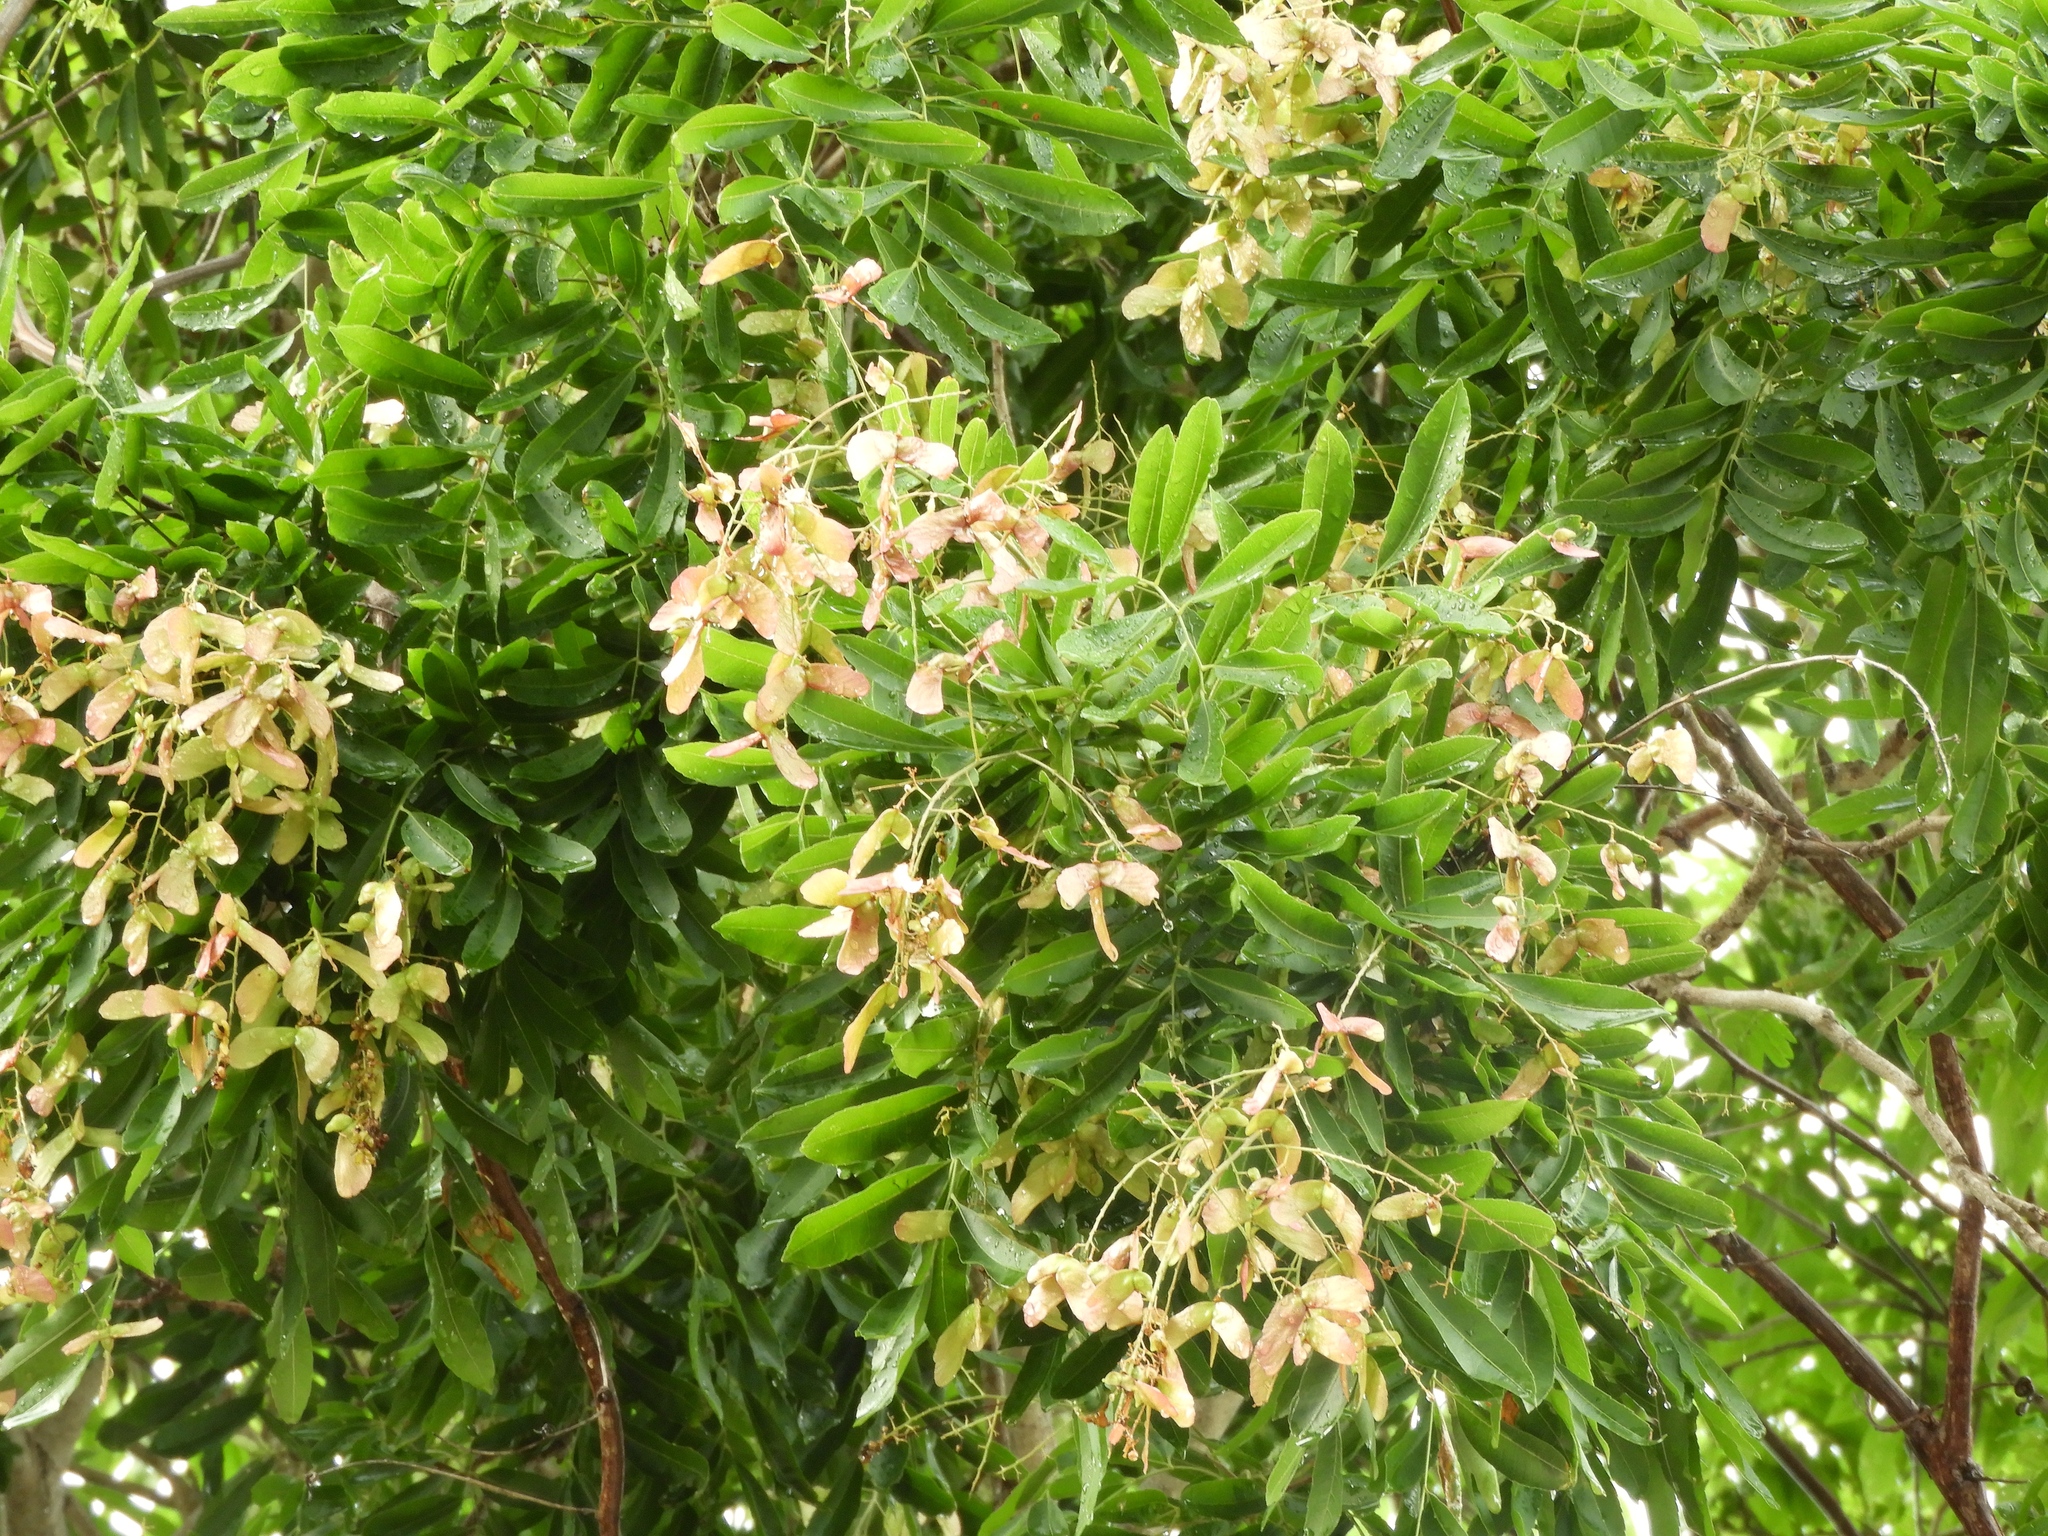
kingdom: Plantae
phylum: Tracheophyta
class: Magnoliopsida
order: Sapindales
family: Sapindaceae
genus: Thouinidium
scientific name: Thouinidium decandrum
